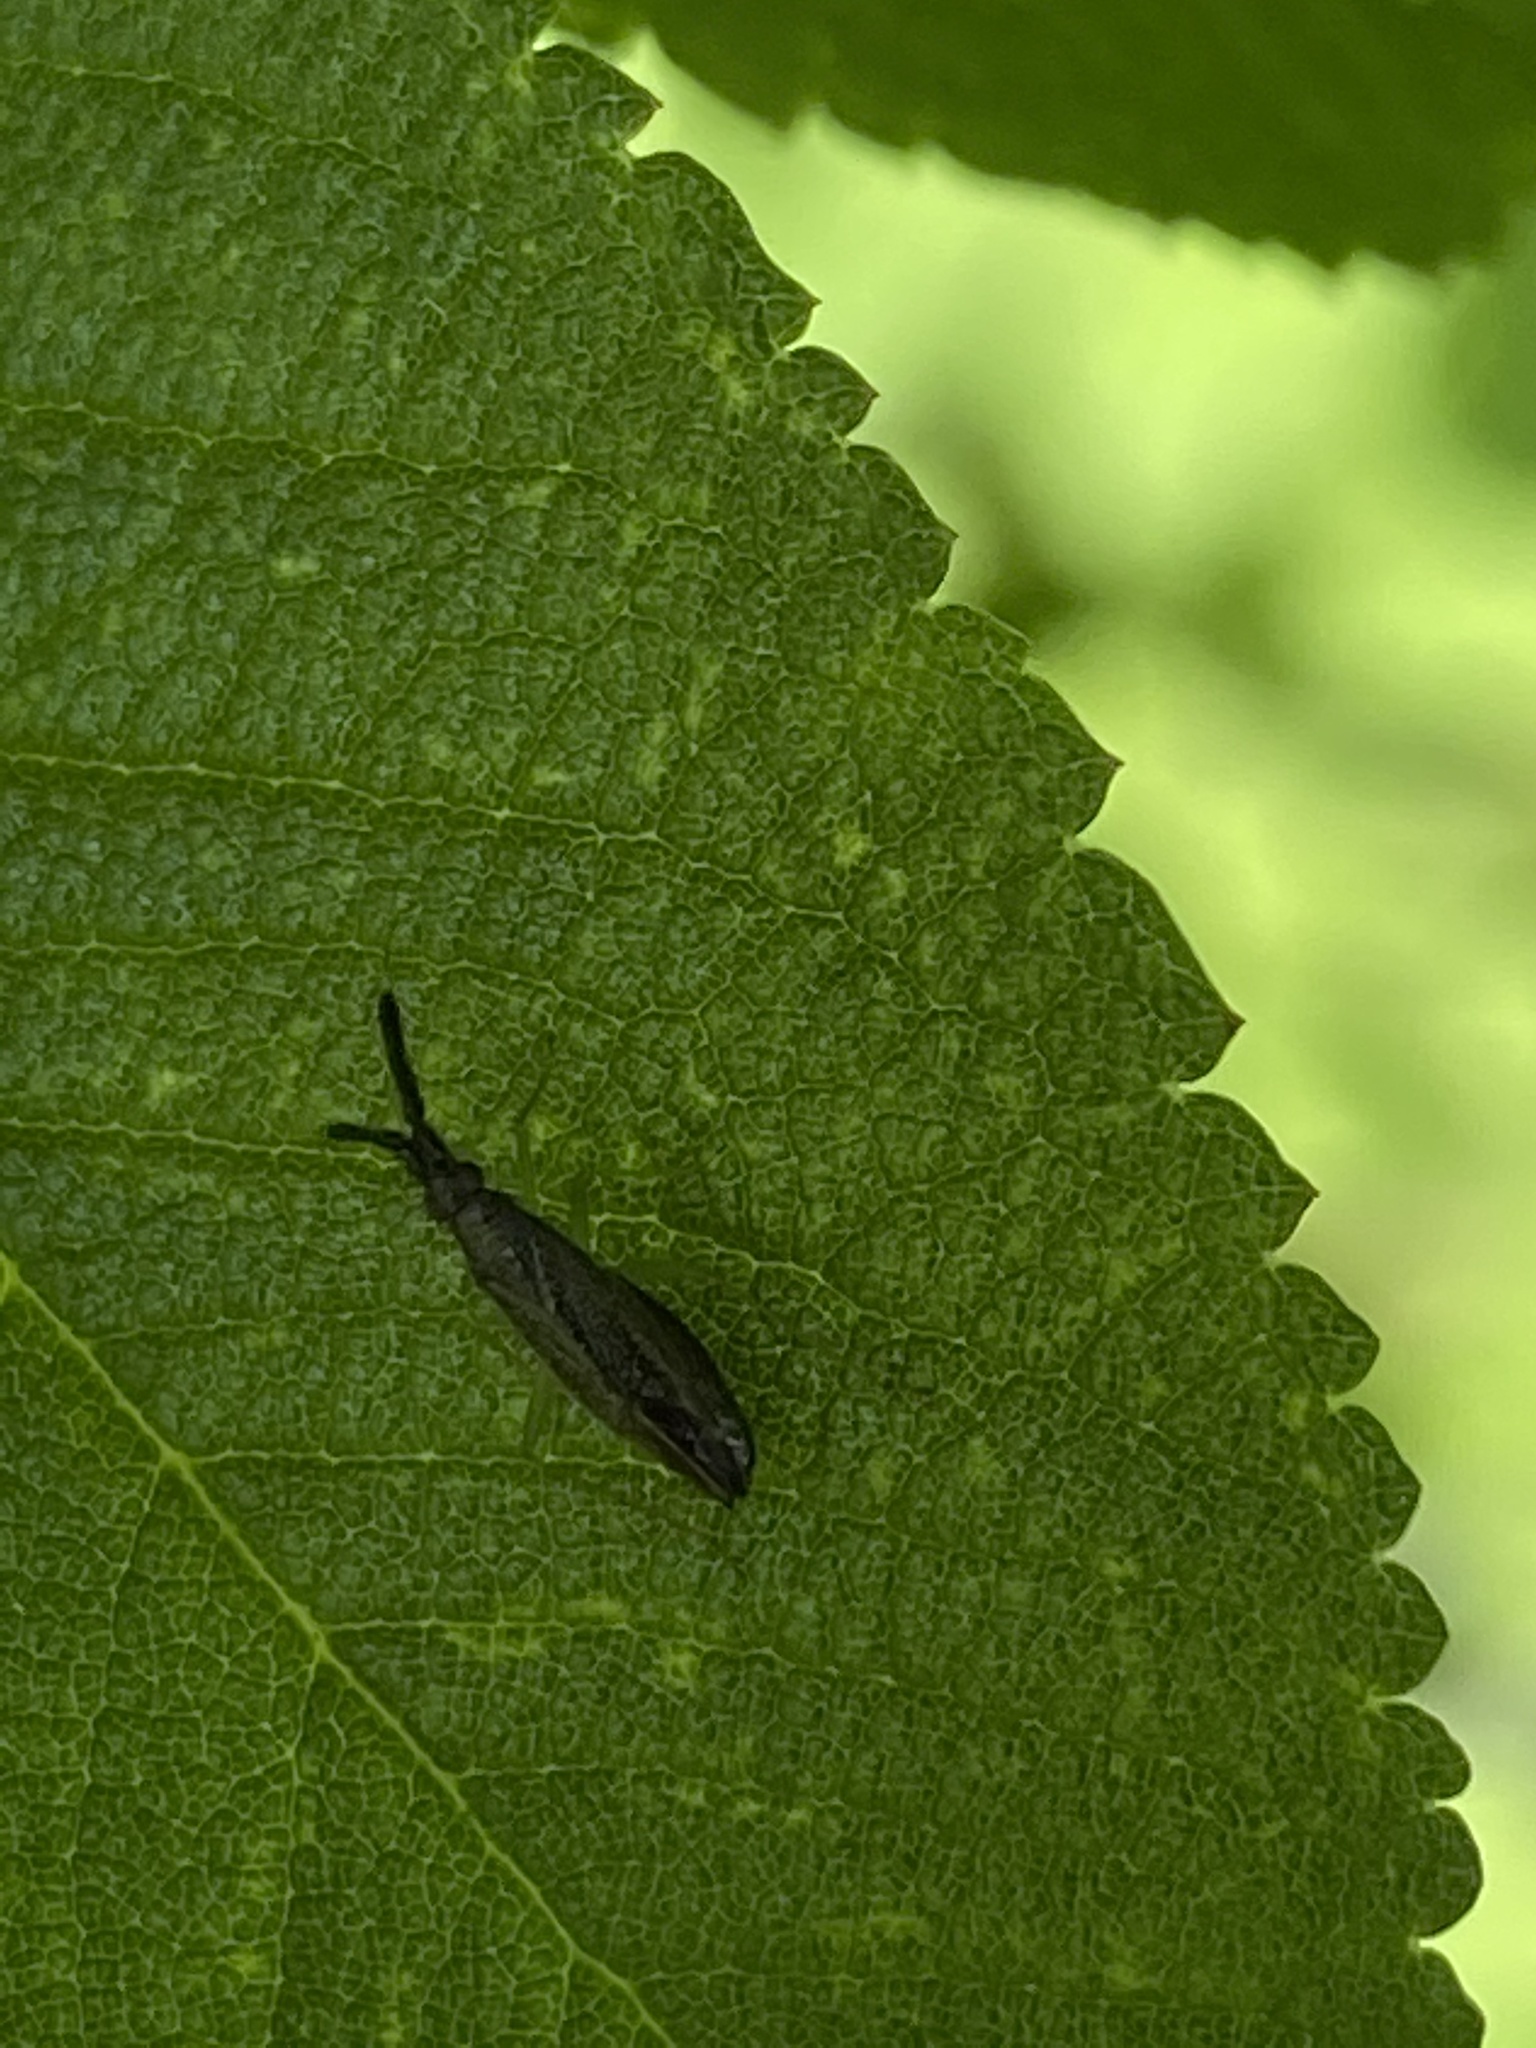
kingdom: Animalia
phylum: Arthropoda
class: Insecta
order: Hemiptera
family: Miridae
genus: Heterotoma
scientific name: Heterotoma planicornis
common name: Plant bug
